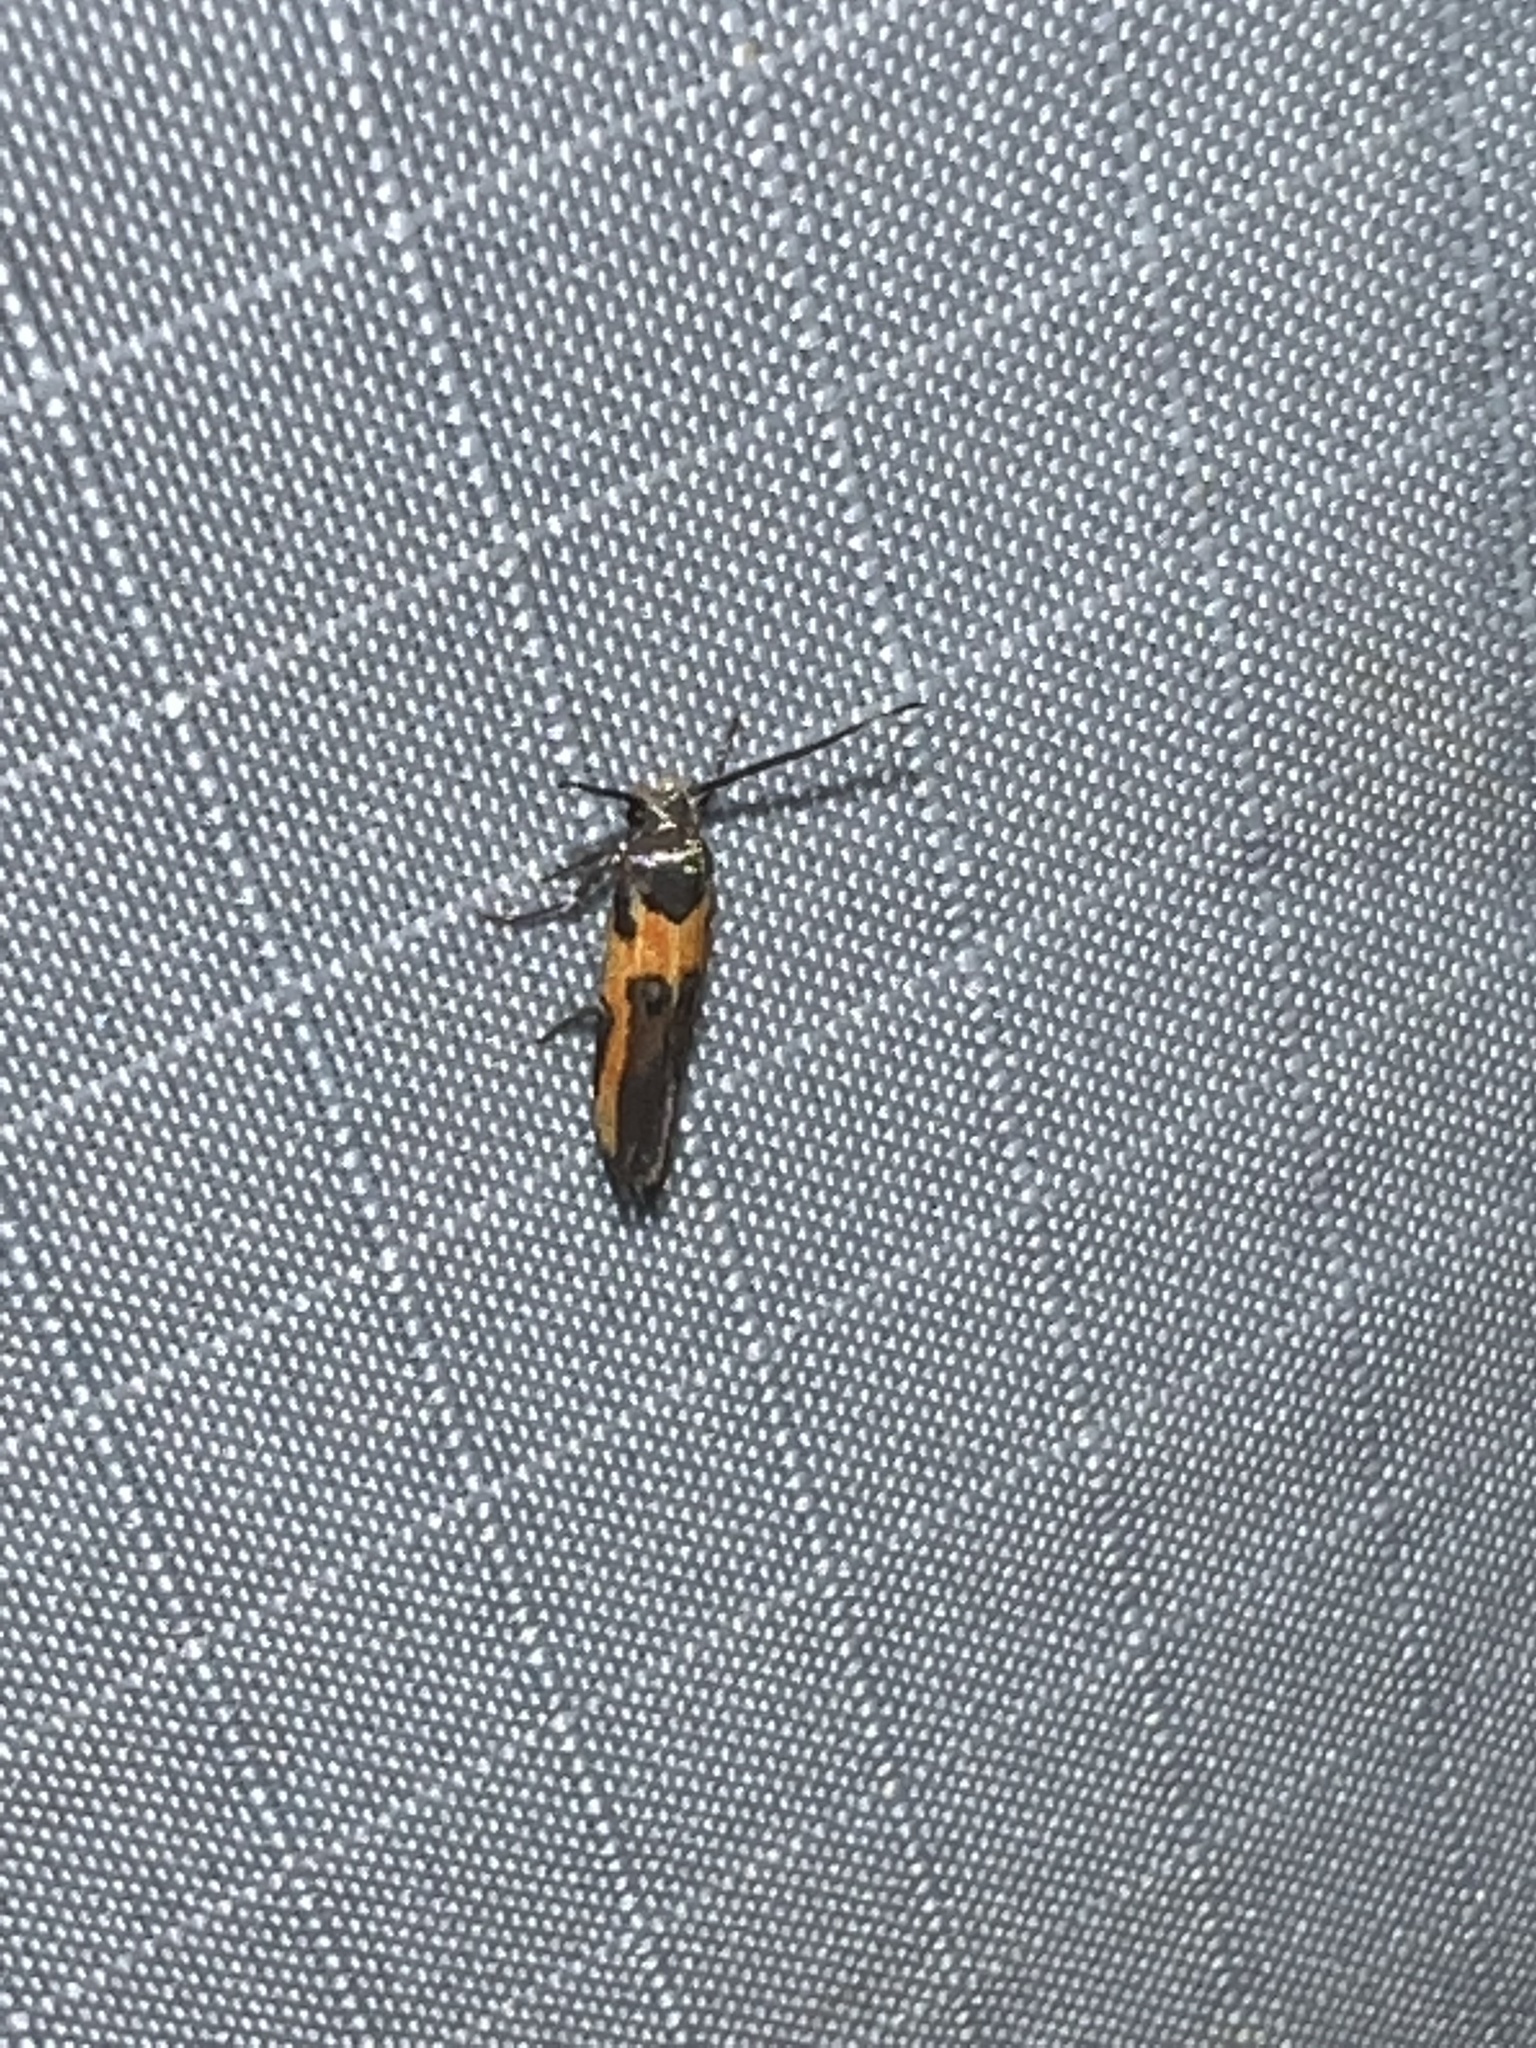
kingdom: Animalia
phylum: Arthropoda
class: Insecta
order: Lepidoptera
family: Cosmopterigidae
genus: Euclemensia
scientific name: Euclemensia bassettella
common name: Kermes scale moth
